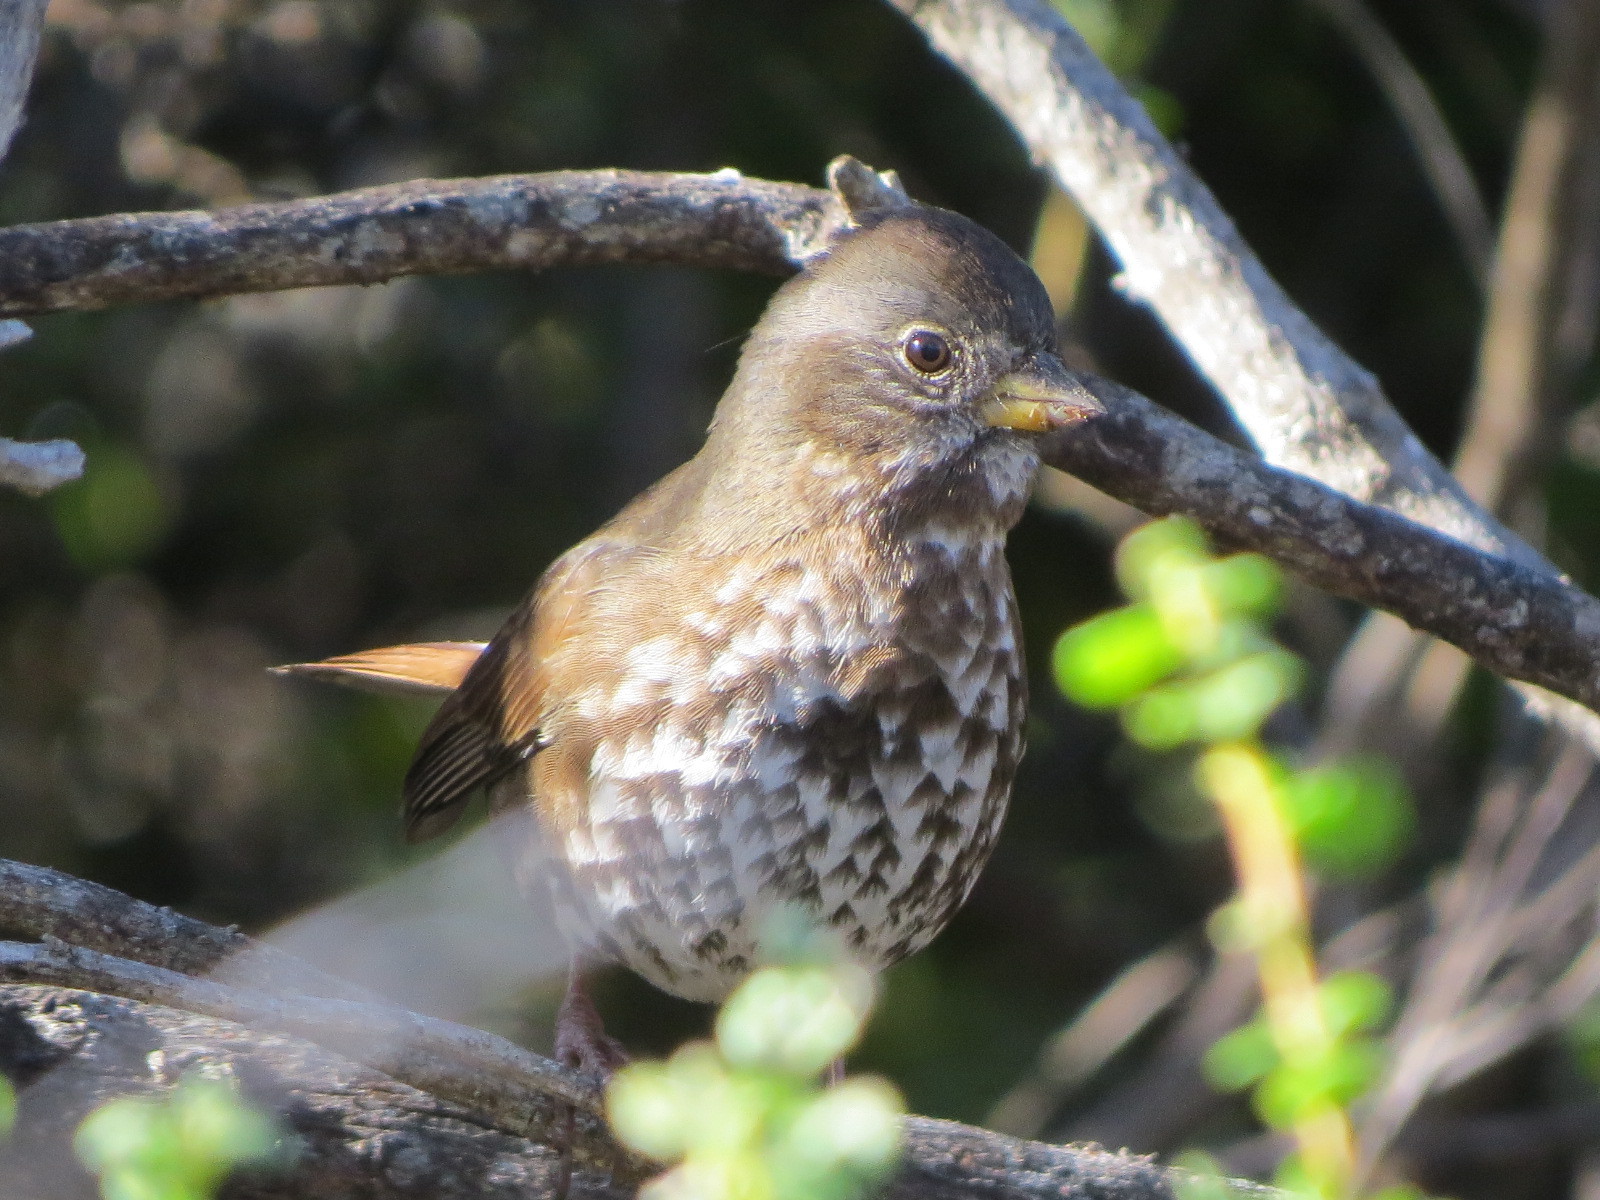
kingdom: Animalia
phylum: Chordata
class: Aves
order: Passeriformes
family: Passerellidae
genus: Passerella
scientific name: Passerella iliaca
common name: Fox sparrow
